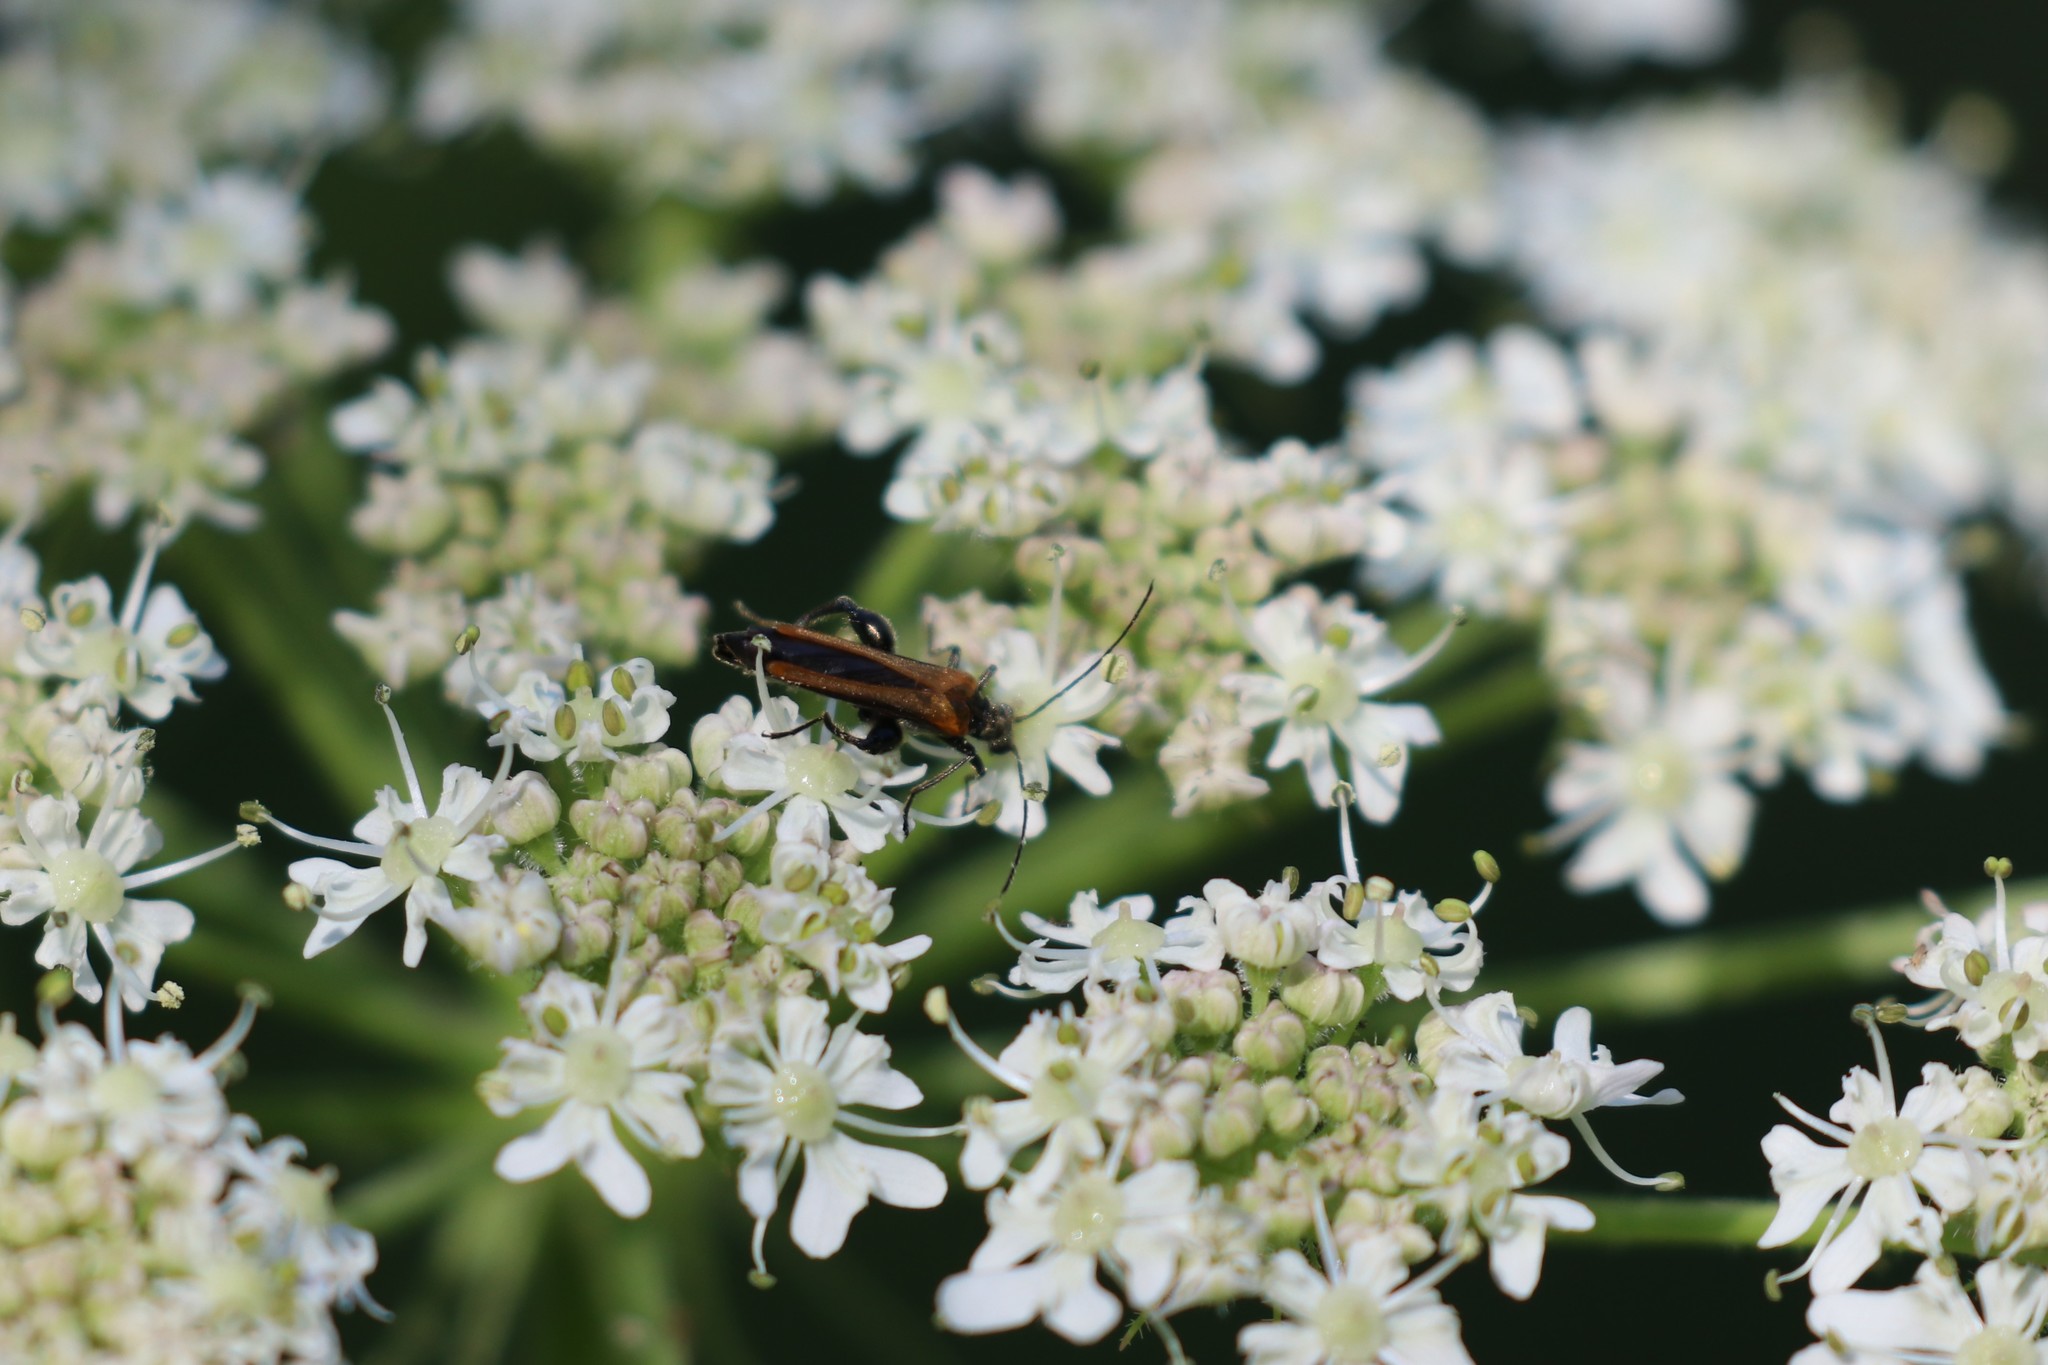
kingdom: Animalia
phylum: Arthropoda
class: Insecta
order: Coleoptera
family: Oedemeridae
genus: Oedemera
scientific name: Oedemera femorata
